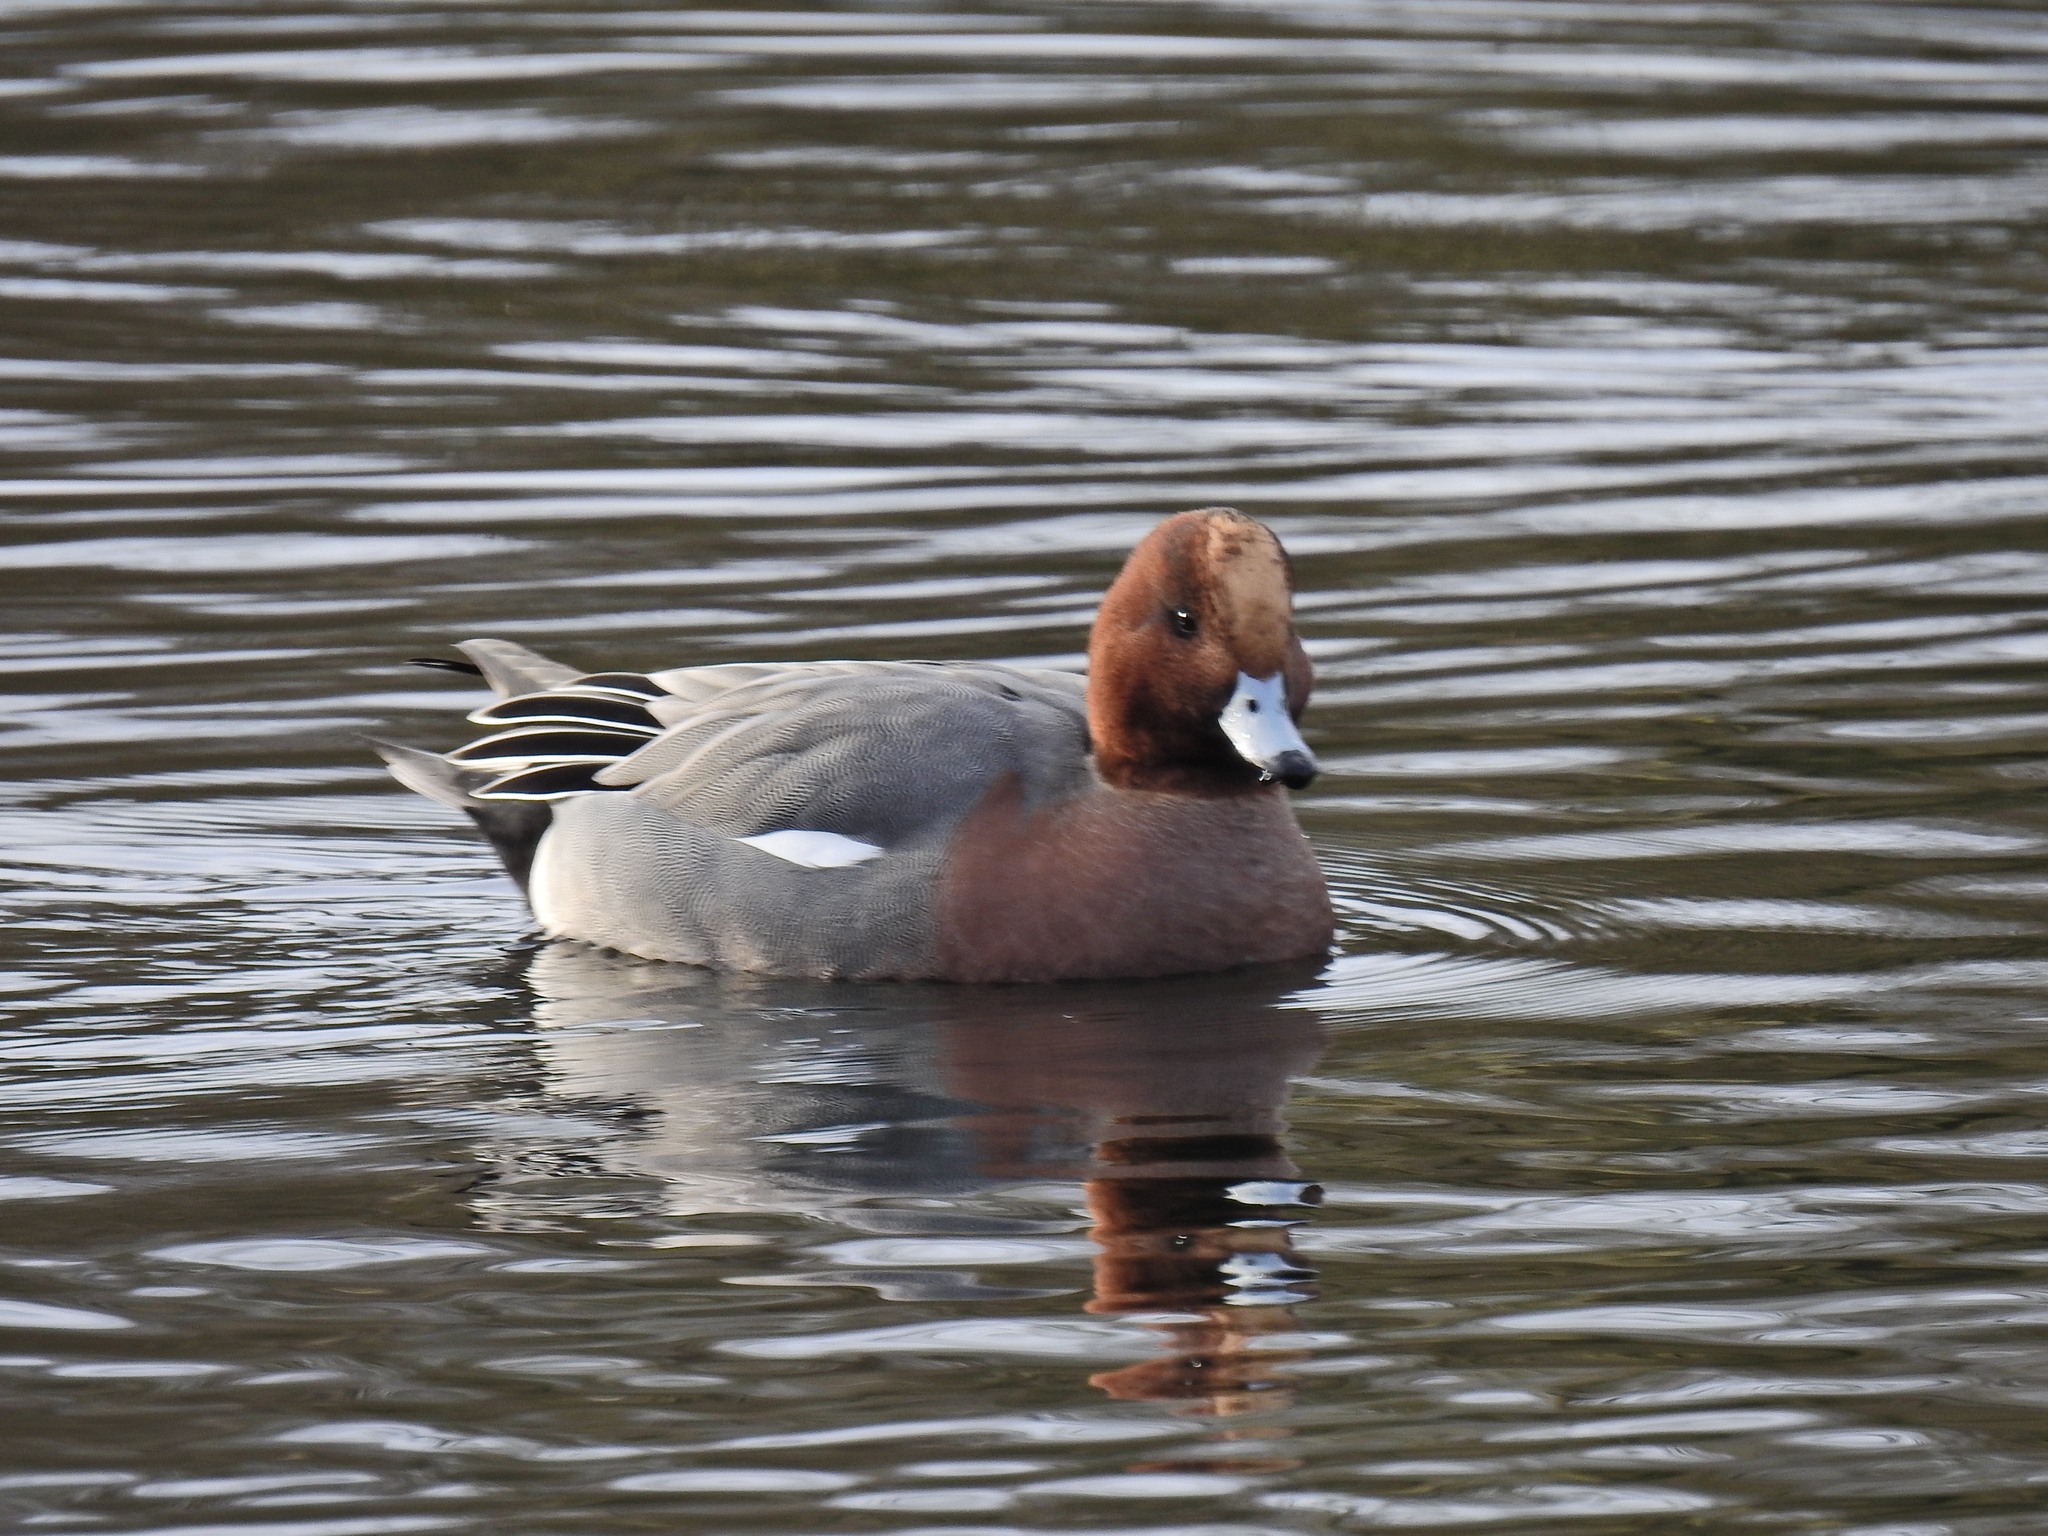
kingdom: Animalia
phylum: Chordata
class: Aves
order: Anseriformes
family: Anatidae
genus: Mareca
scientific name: Mareca penelope
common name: Eurasian wigeon
